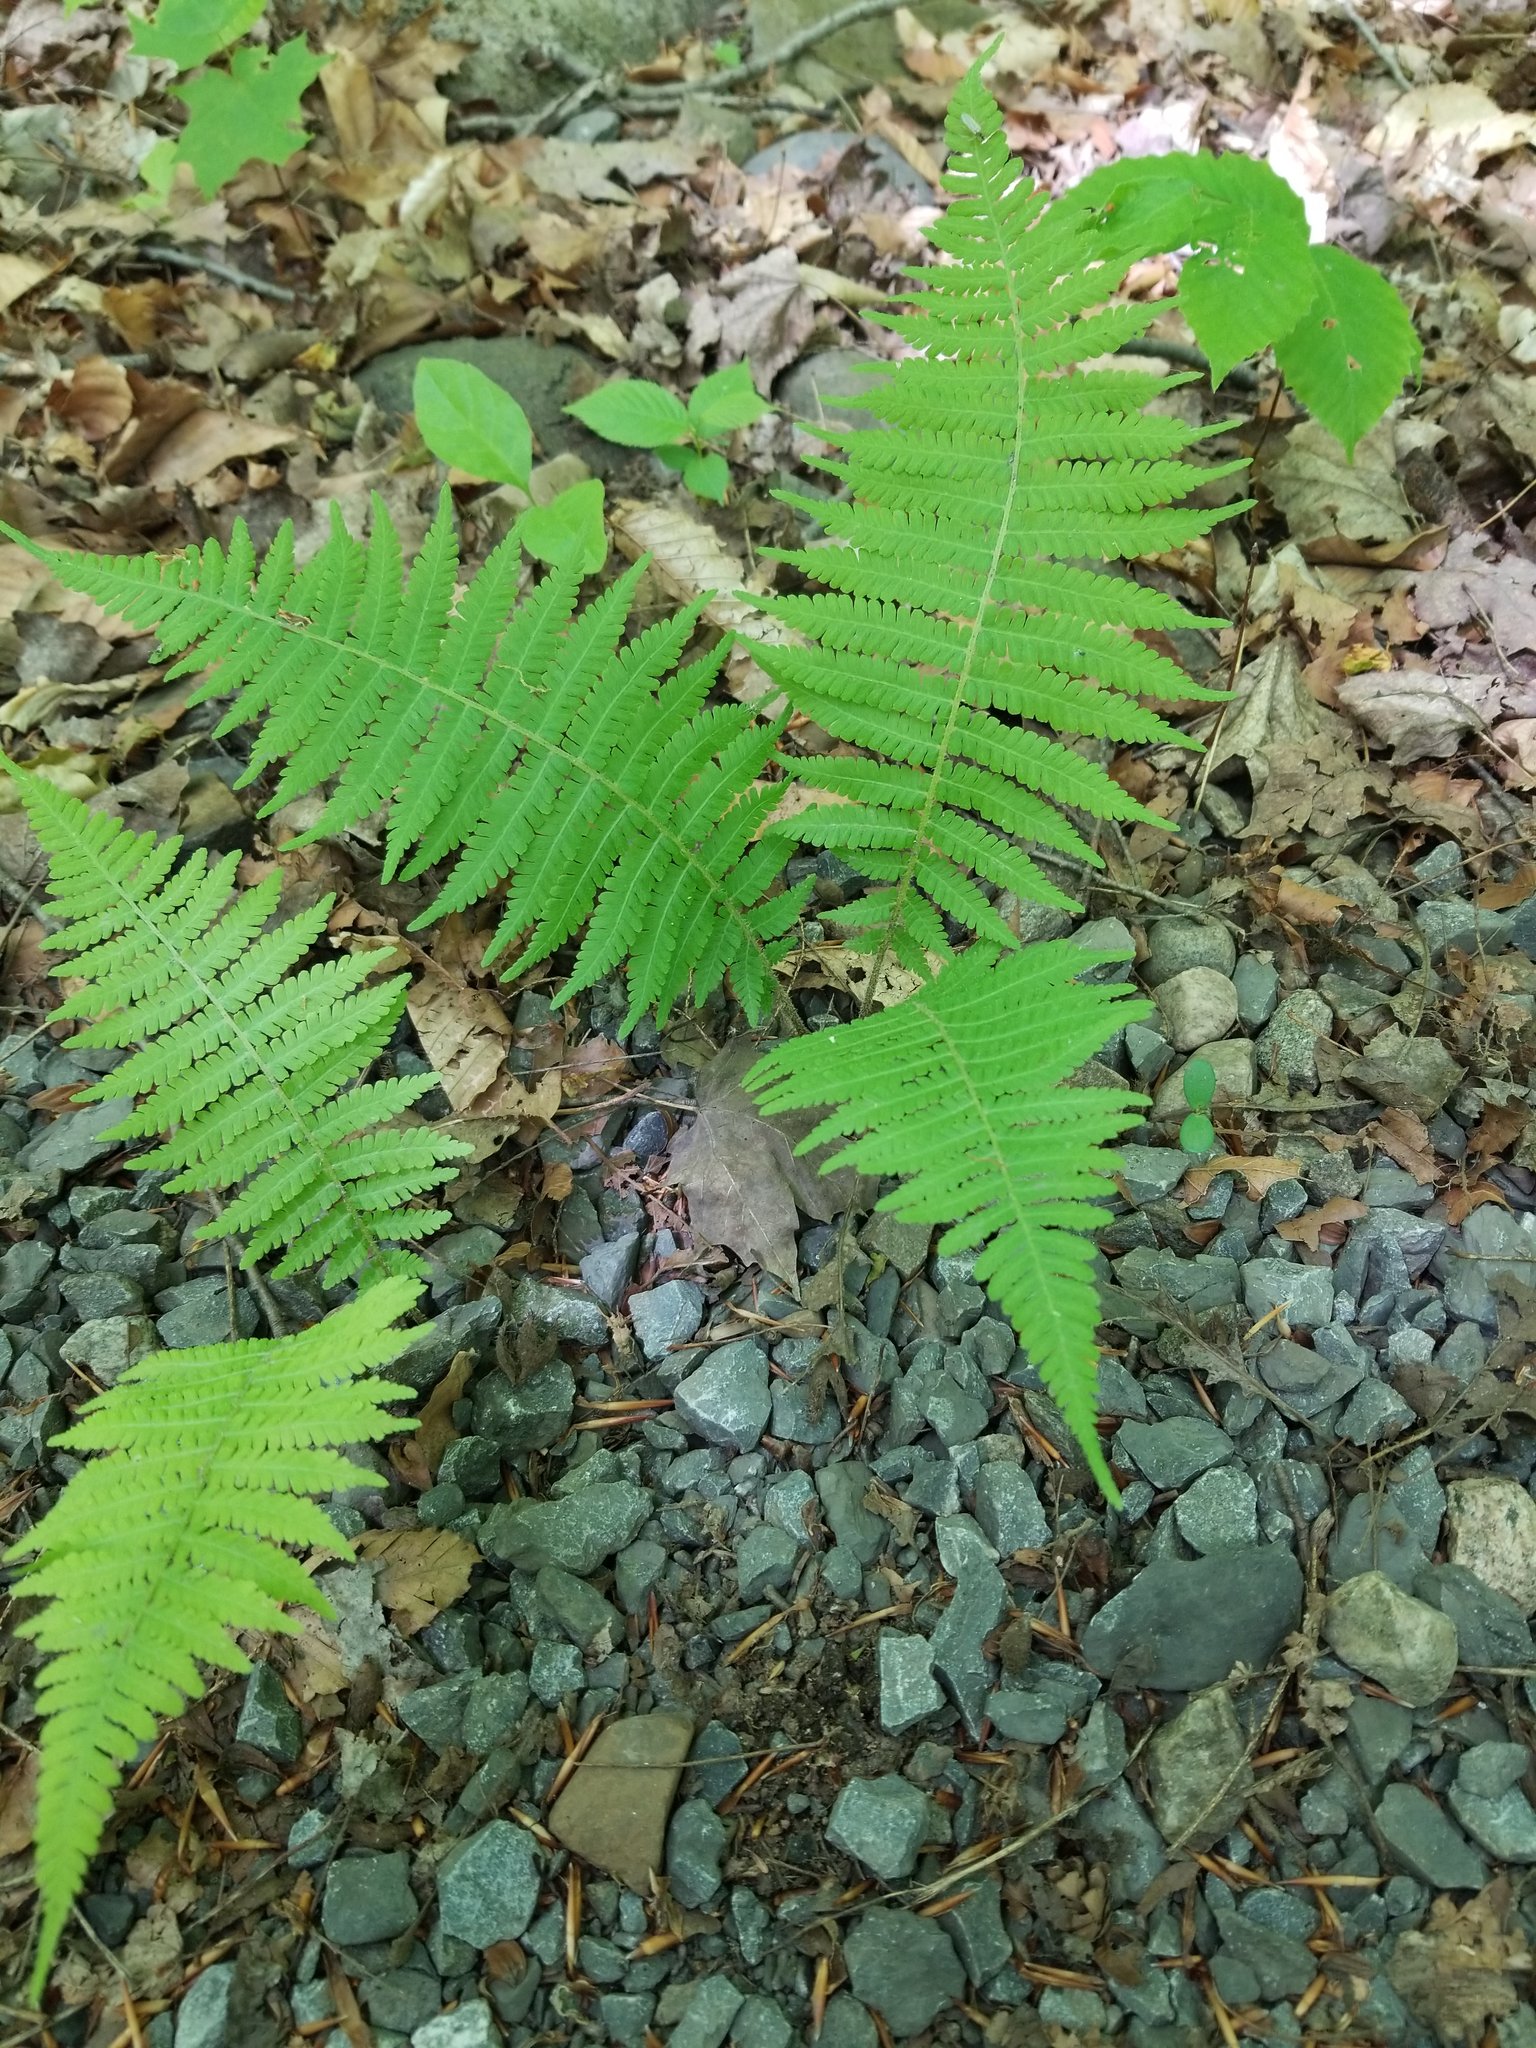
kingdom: Plantae
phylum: Tracheophyta
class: Polypodiopsida
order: Polypodiales
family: Athyriaceae
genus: Deparia
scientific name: Deparia acrostichoides
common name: Silver false spleenwort
